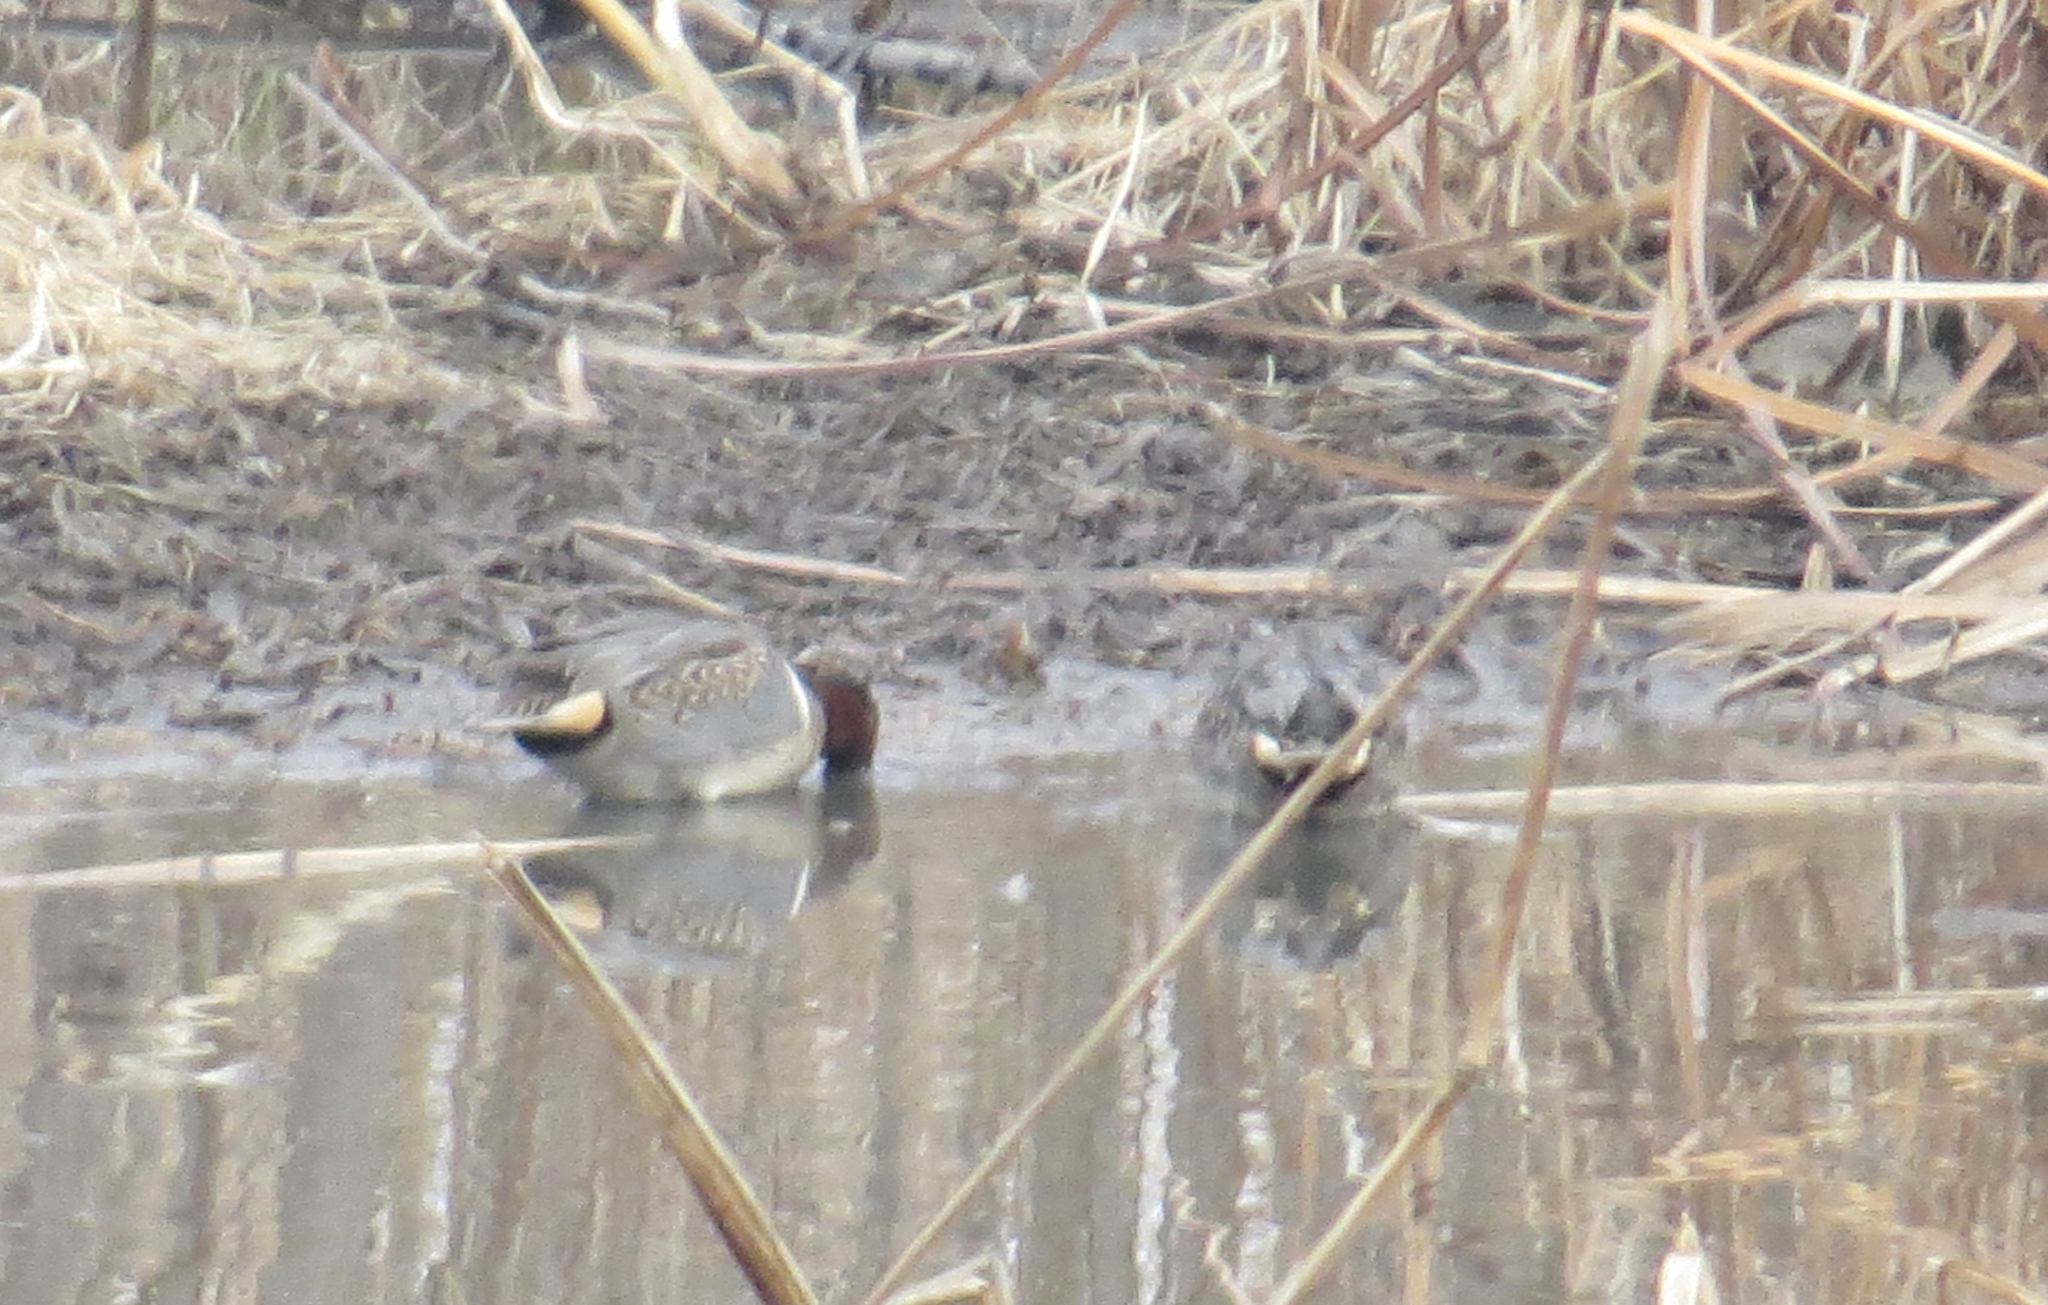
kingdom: Animalia
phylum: Chordata
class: Aves
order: Anseriformes
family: Anatidae
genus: Anas
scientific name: Anas crecca
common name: Eurasian teal
